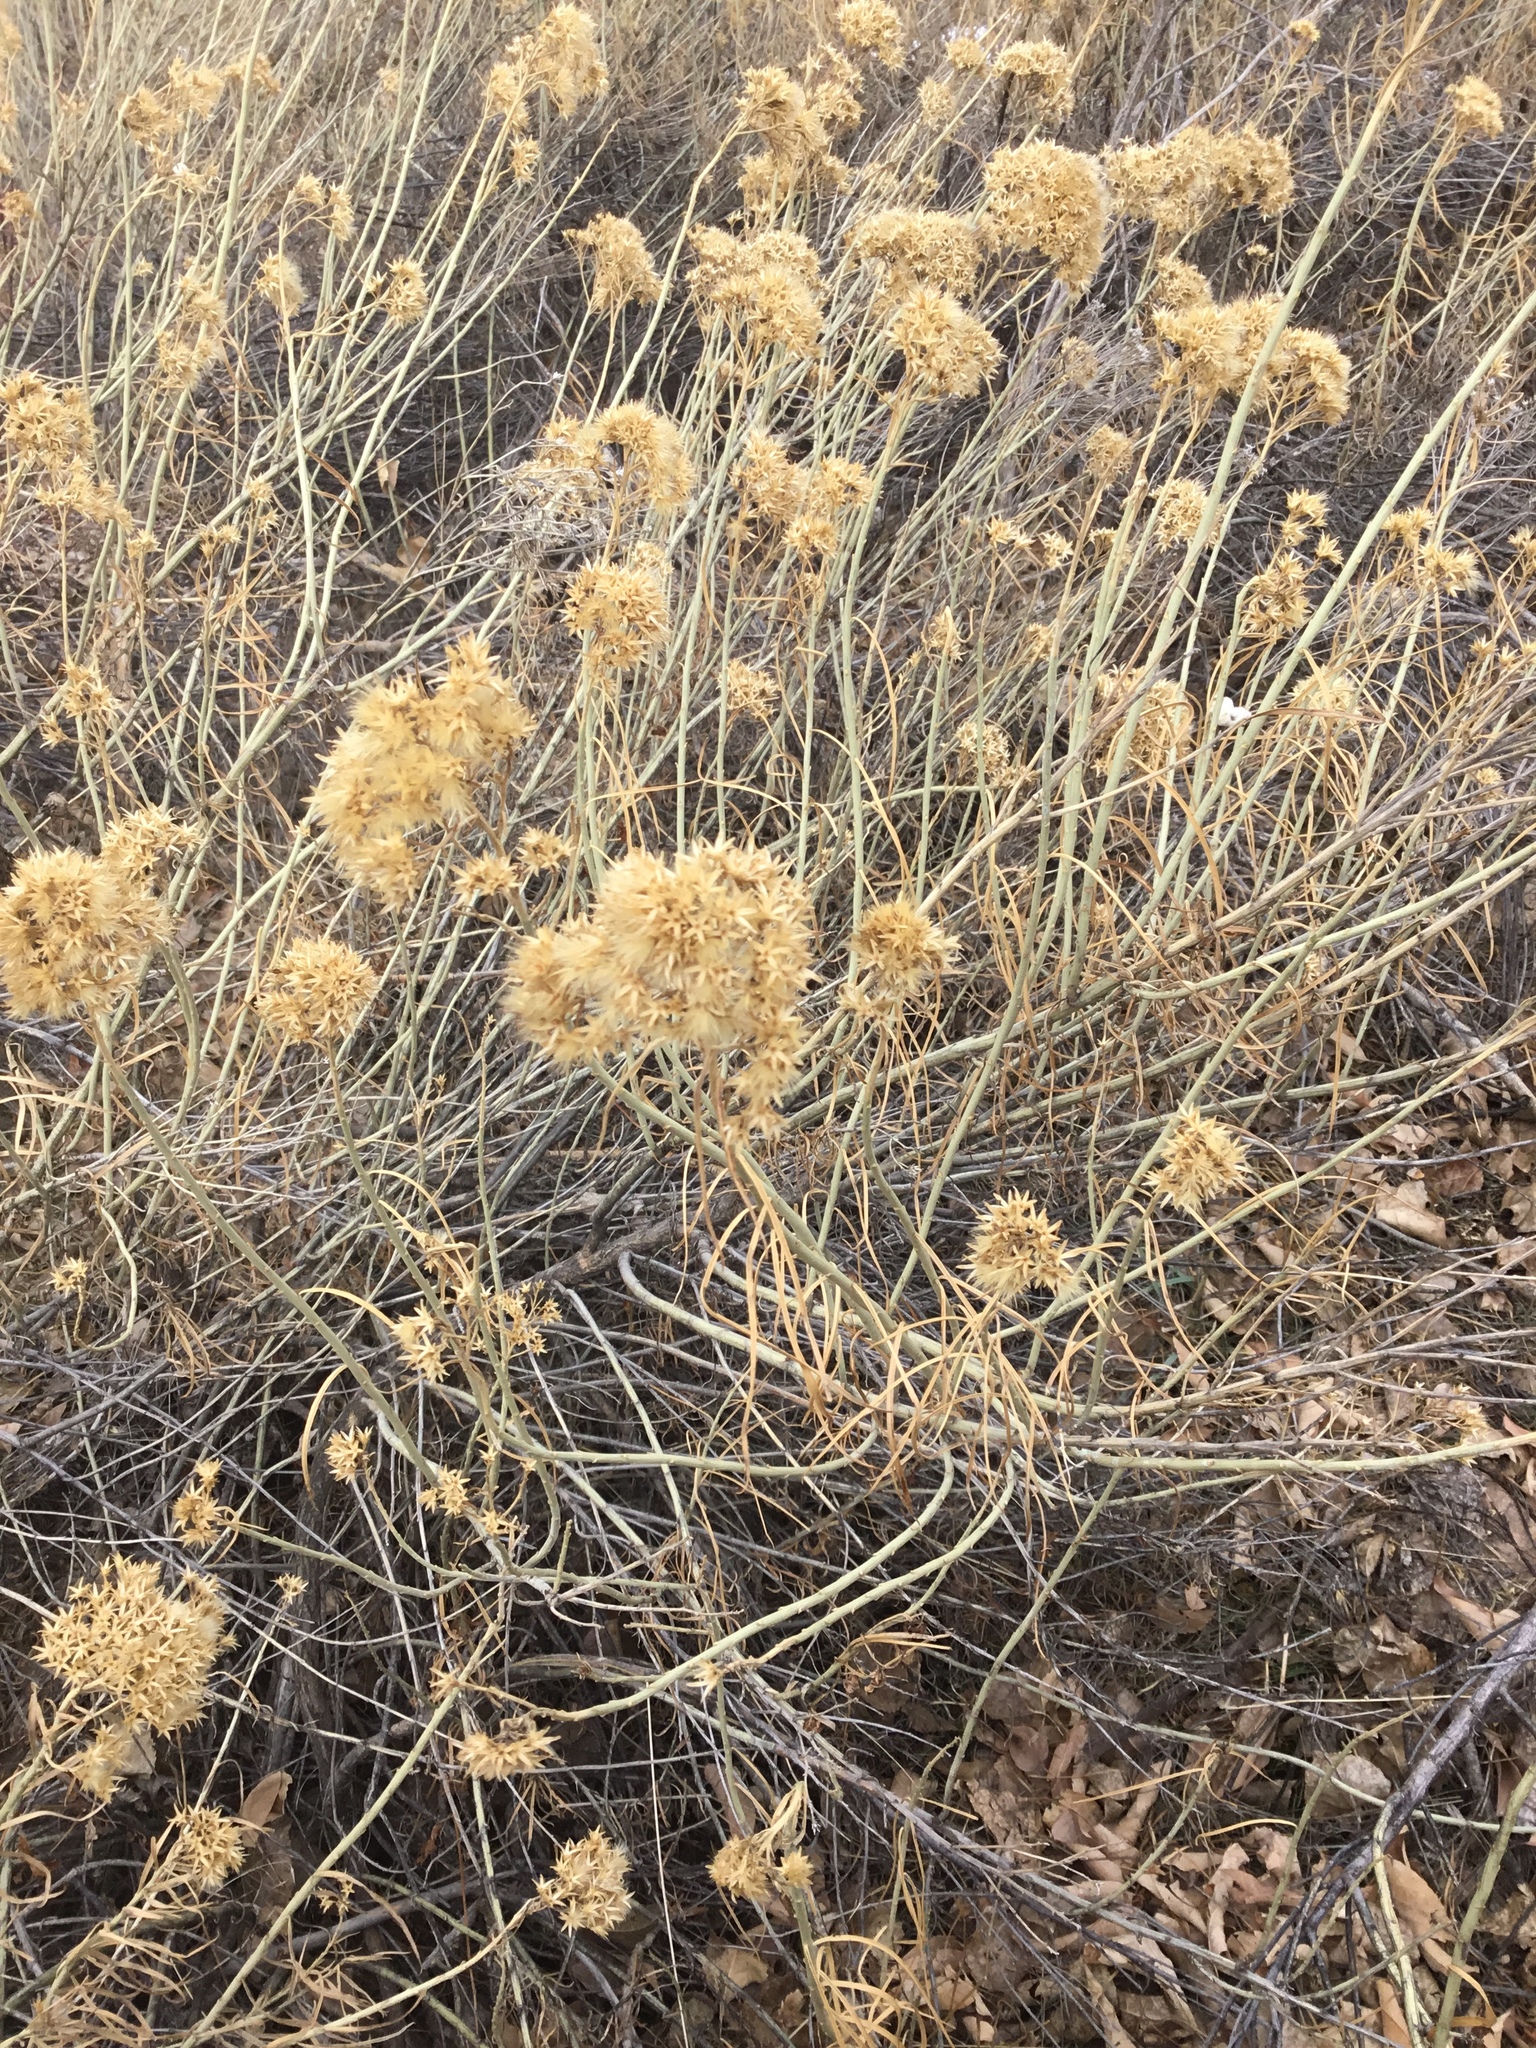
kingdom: Plantae
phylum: Tracheophyta
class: Magnoliopsida
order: Asterales
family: Asteraceae
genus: Ericameria
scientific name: Ericameria nauseosa
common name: Rubber rabbitbrush
